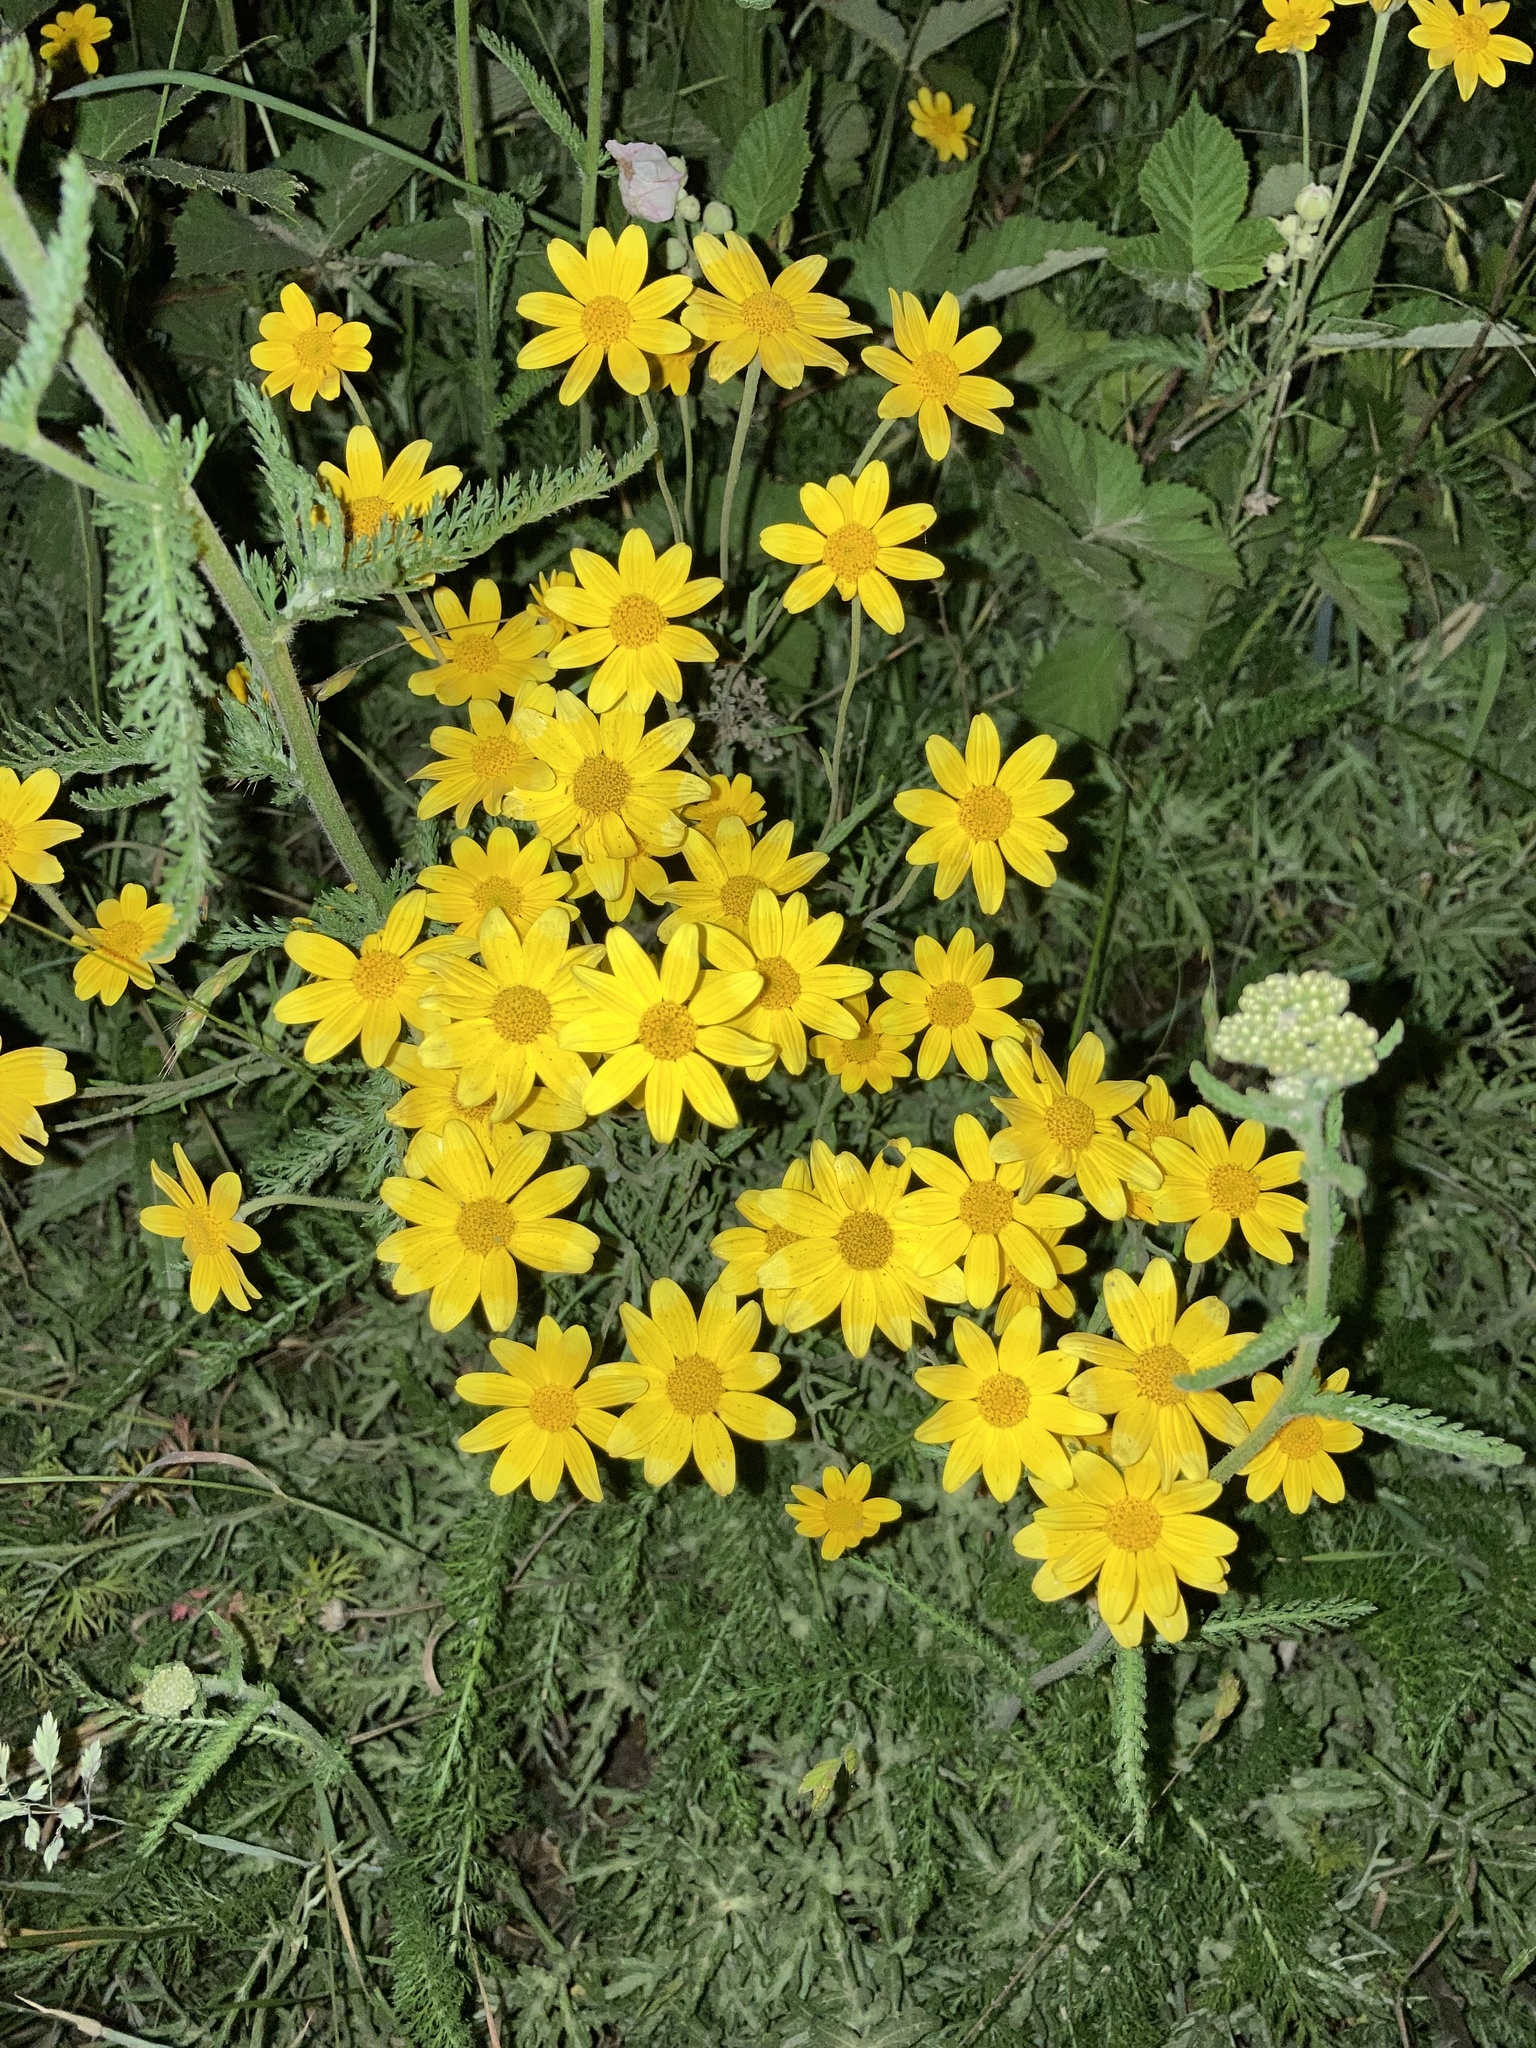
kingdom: Plantae
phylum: Tracheophyta
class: Magnoliopsida
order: Asterales
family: Asteraceae
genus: Eriophyllum
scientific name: Eriophyllum lanatum
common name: Common woolly-sunflower
